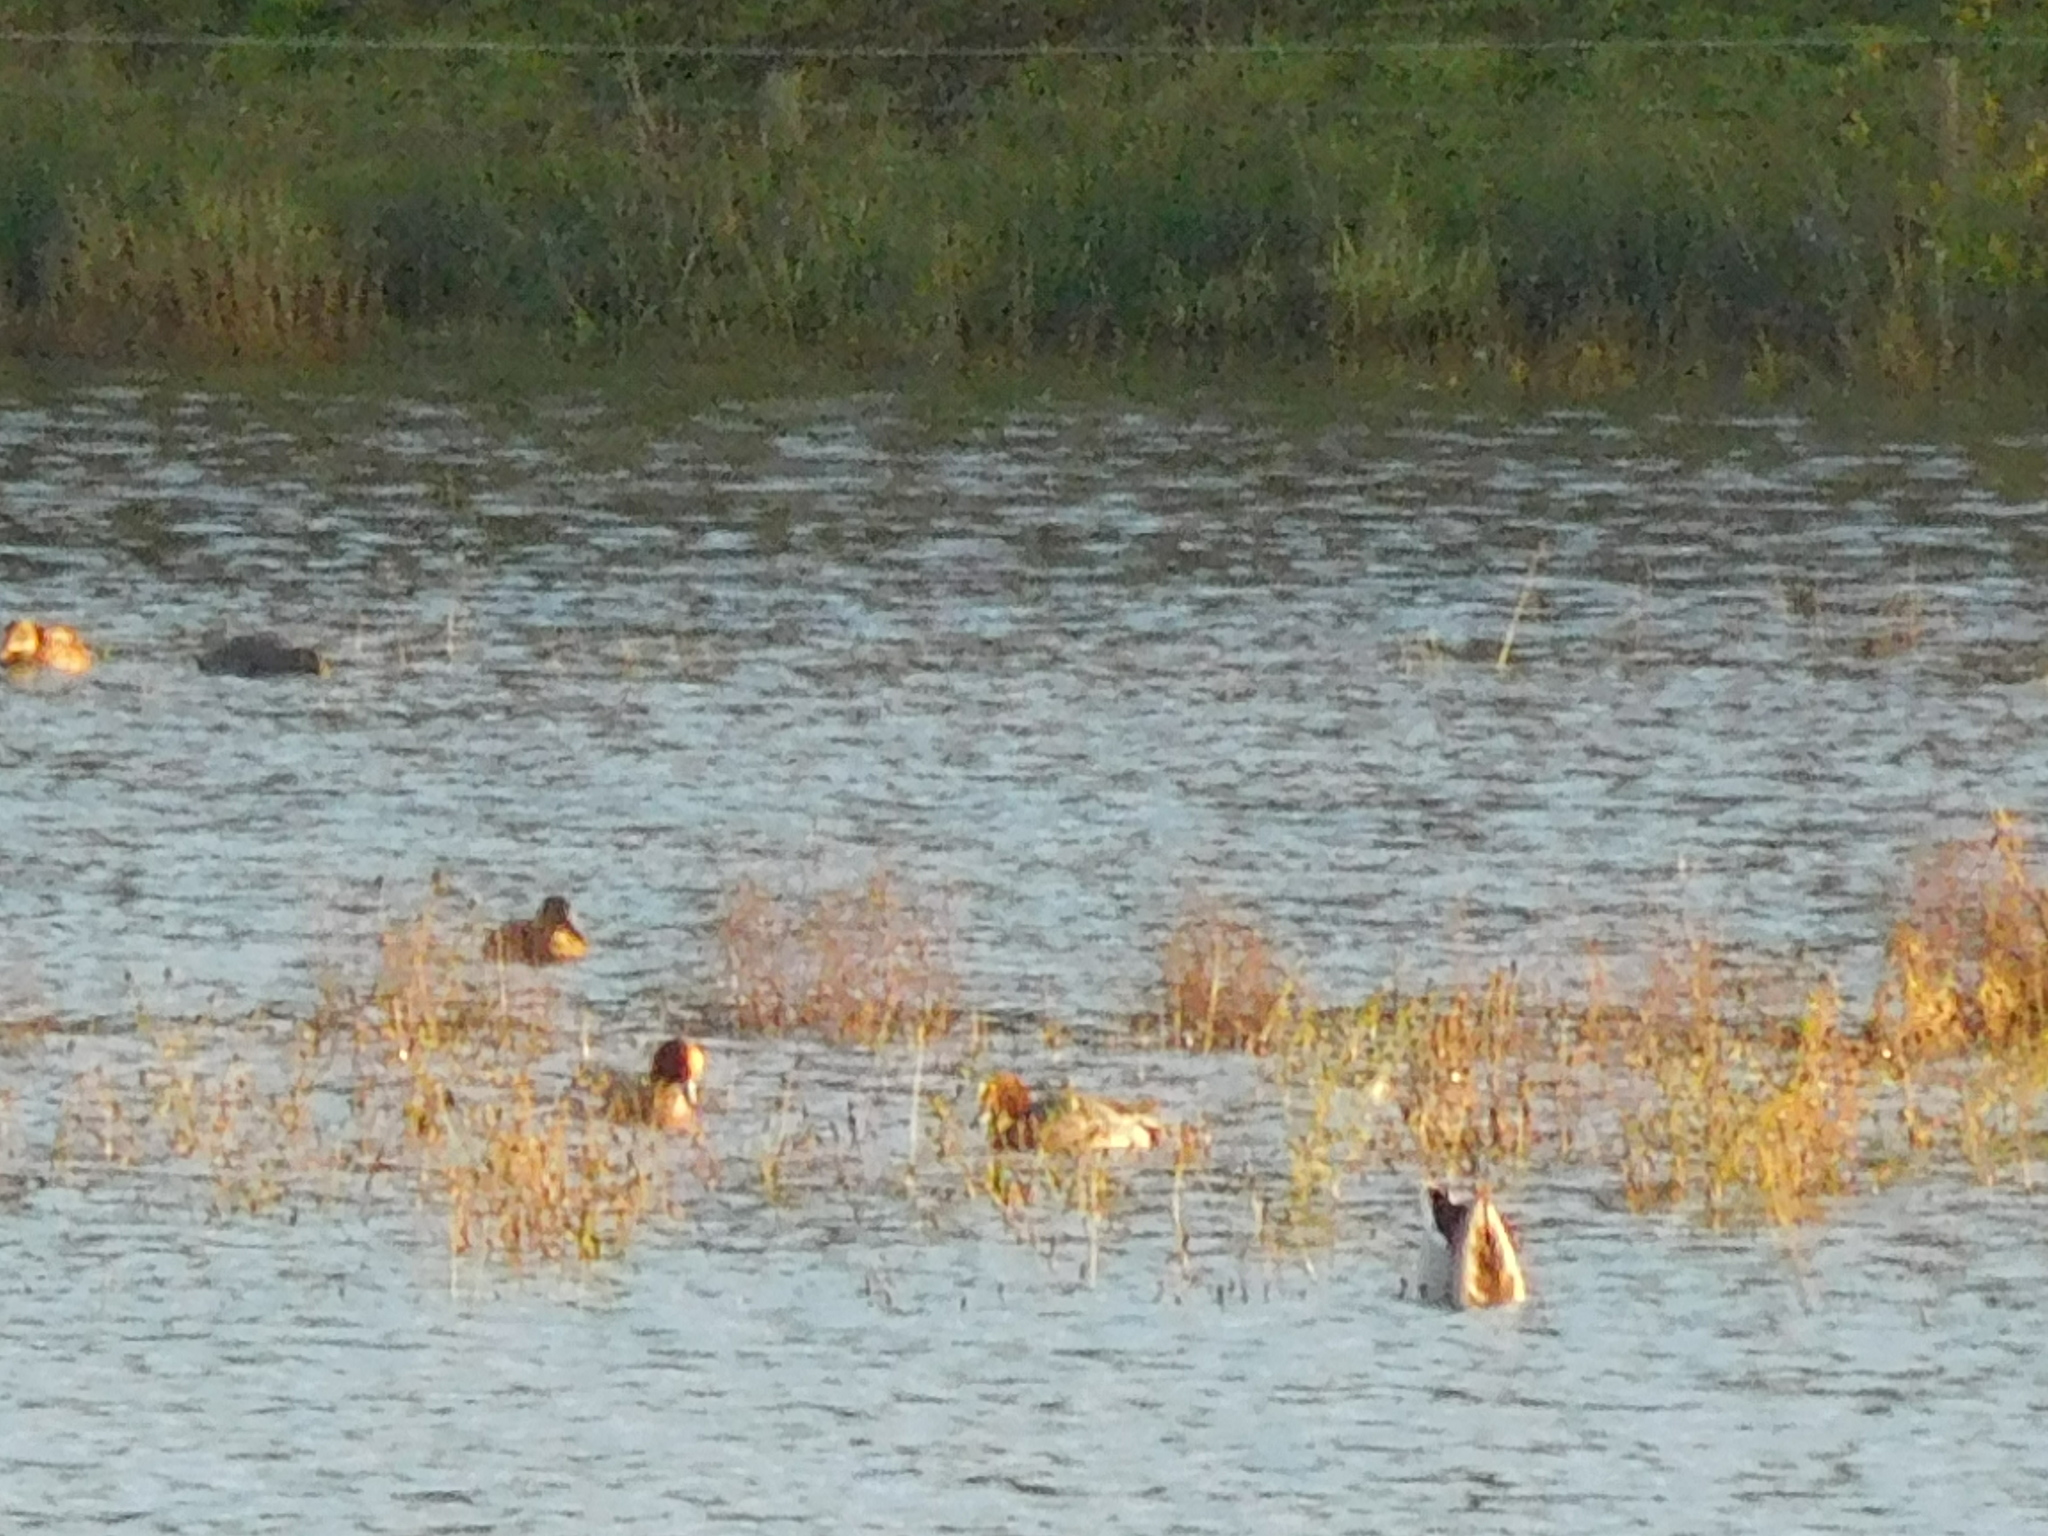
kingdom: Animalia
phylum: Chordata
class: Aves
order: Anseriformes
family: Anatidae
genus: Mareca
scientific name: Mareca penelope
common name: Eurasian wigeon
